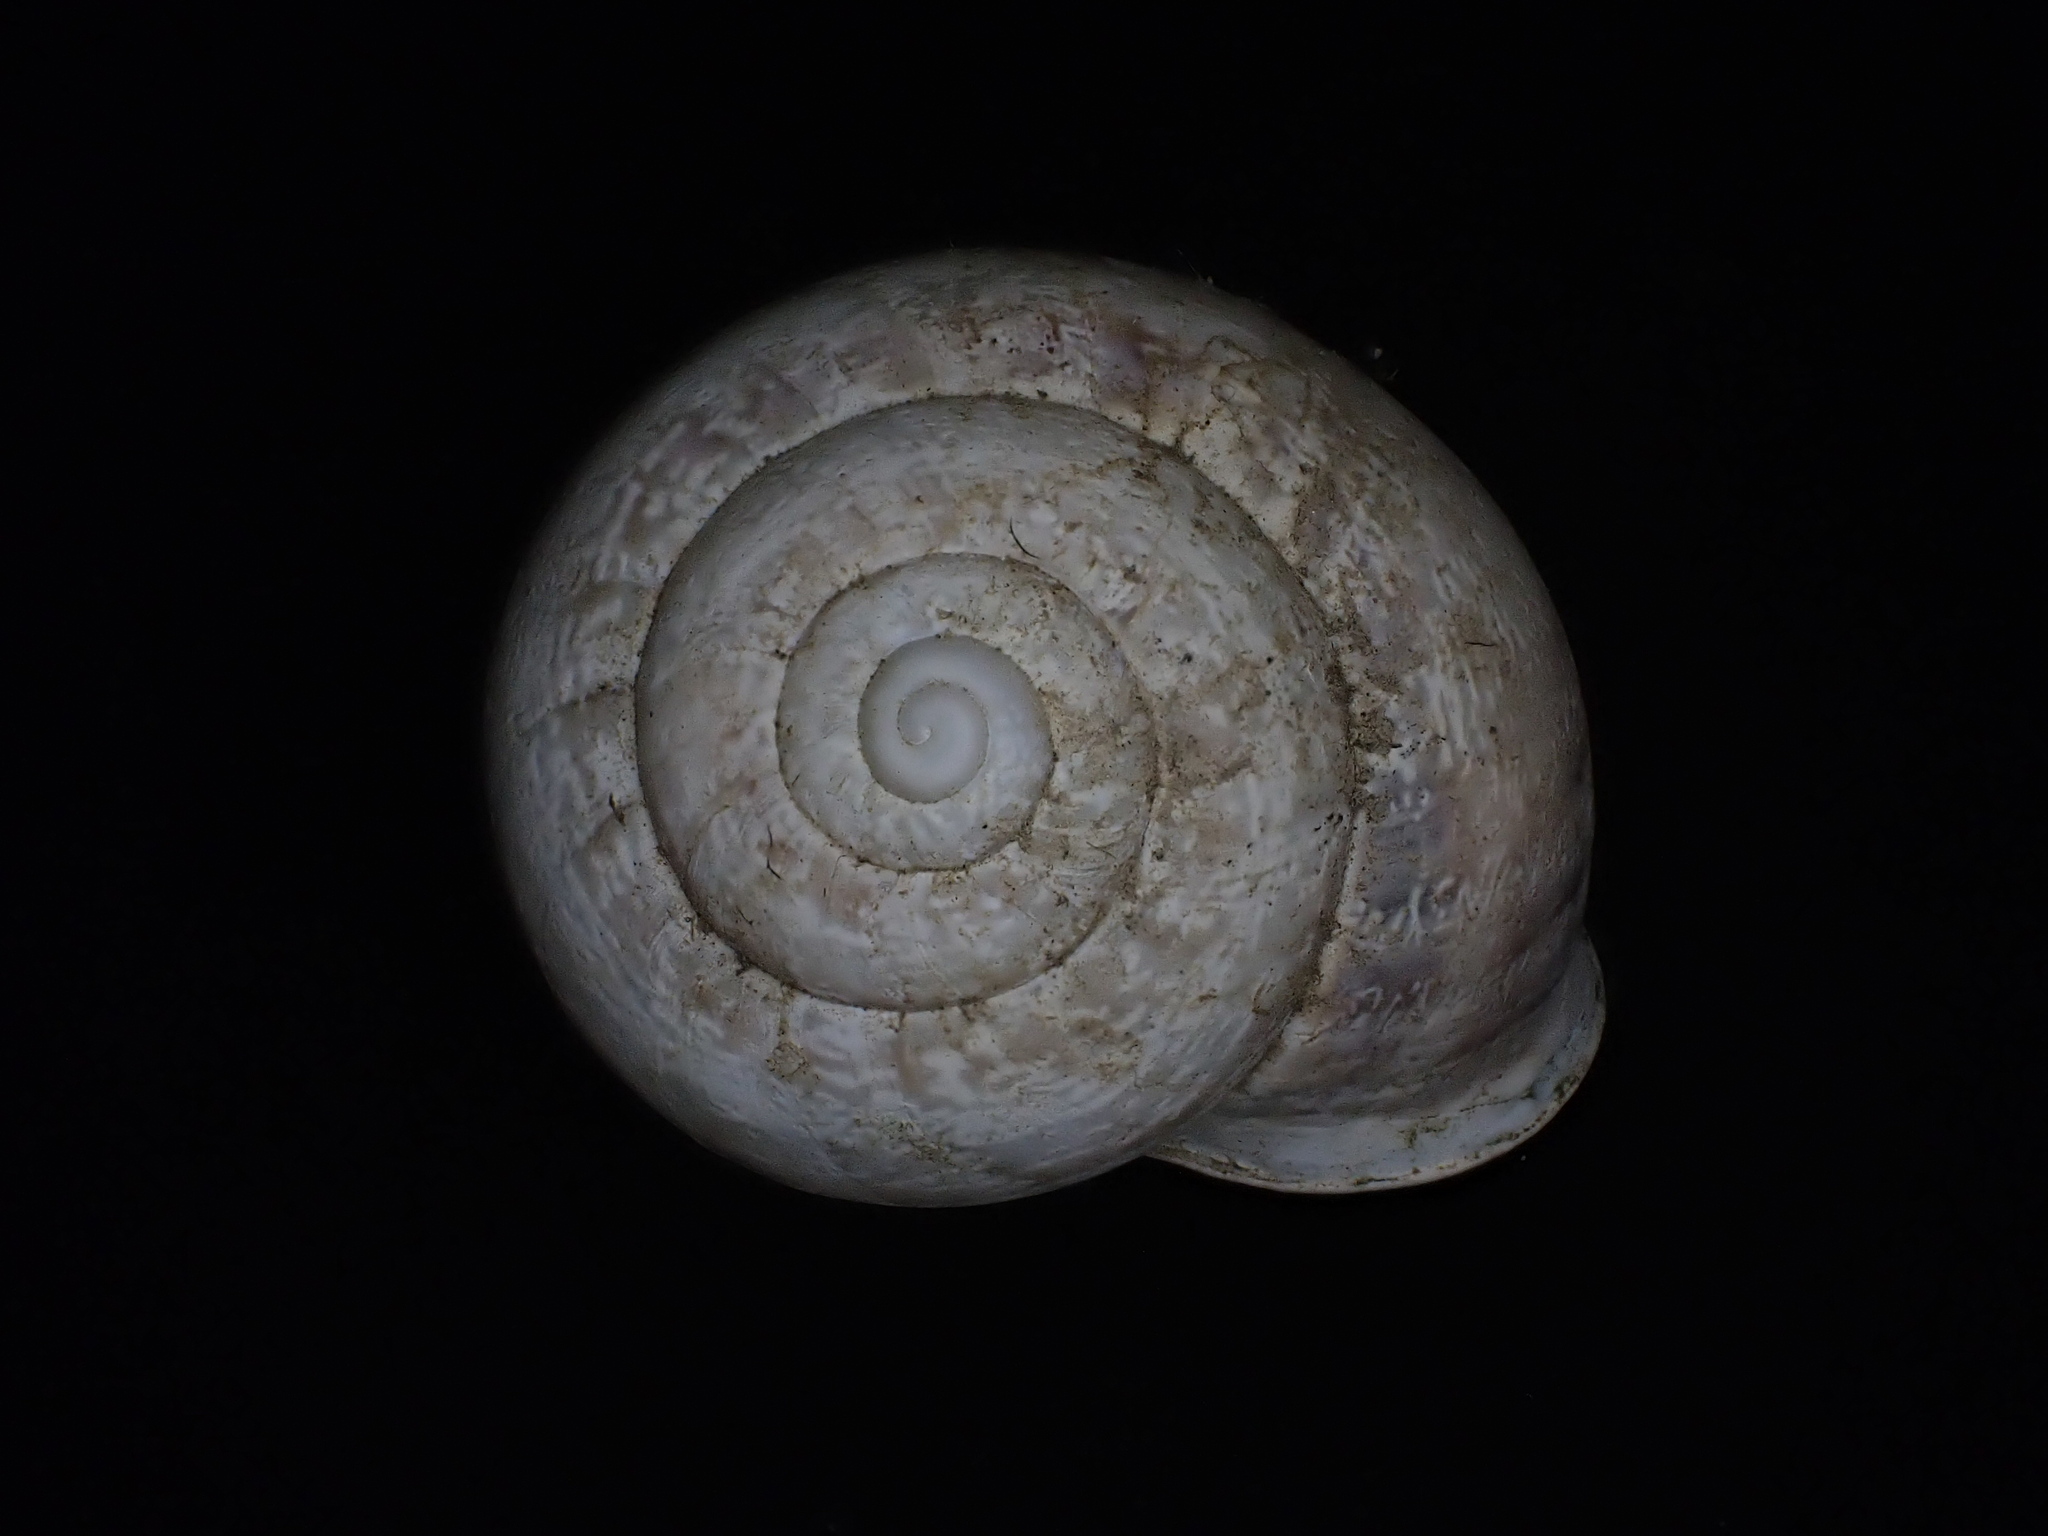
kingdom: Animalia
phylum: Mollusca
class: Gastropoda
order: Stylommatophora
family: Helicidae
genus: Eobania
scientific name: Eobania vermiculata
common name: Chocolateband snail
